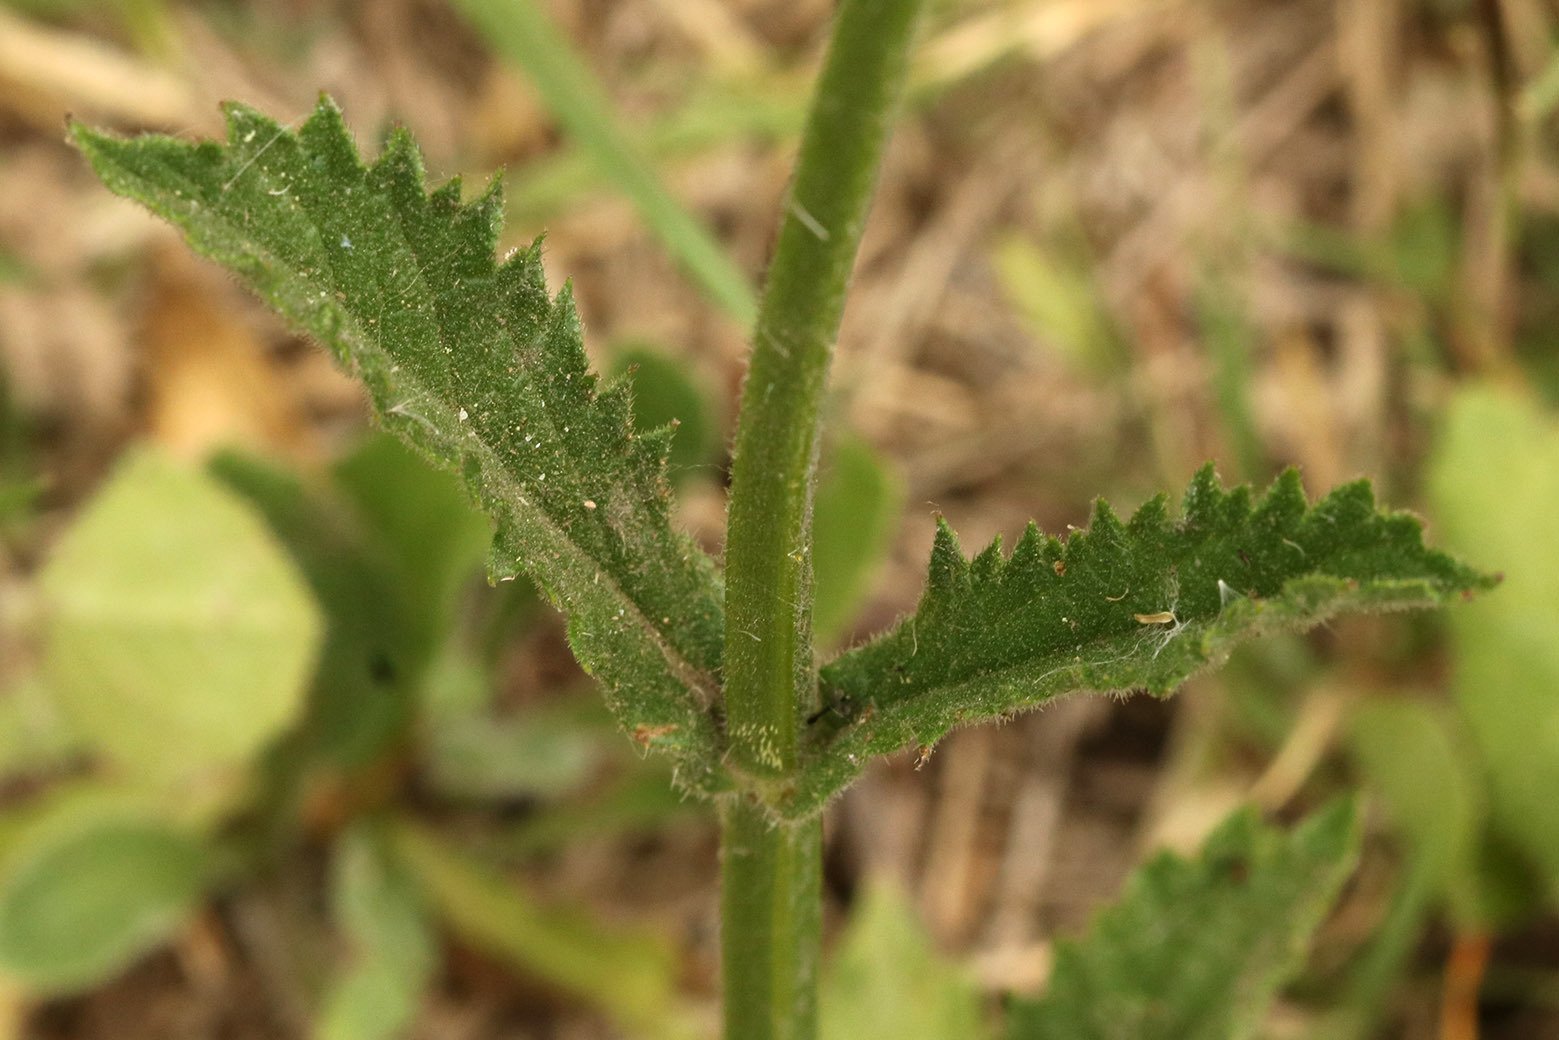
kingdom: Plantae
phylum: Tracheophyta
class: Magnoliopsida
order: Lamiales
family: Verbenaceae
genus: Verbena
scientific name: Verbena litoralis
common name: Seashore vervain
